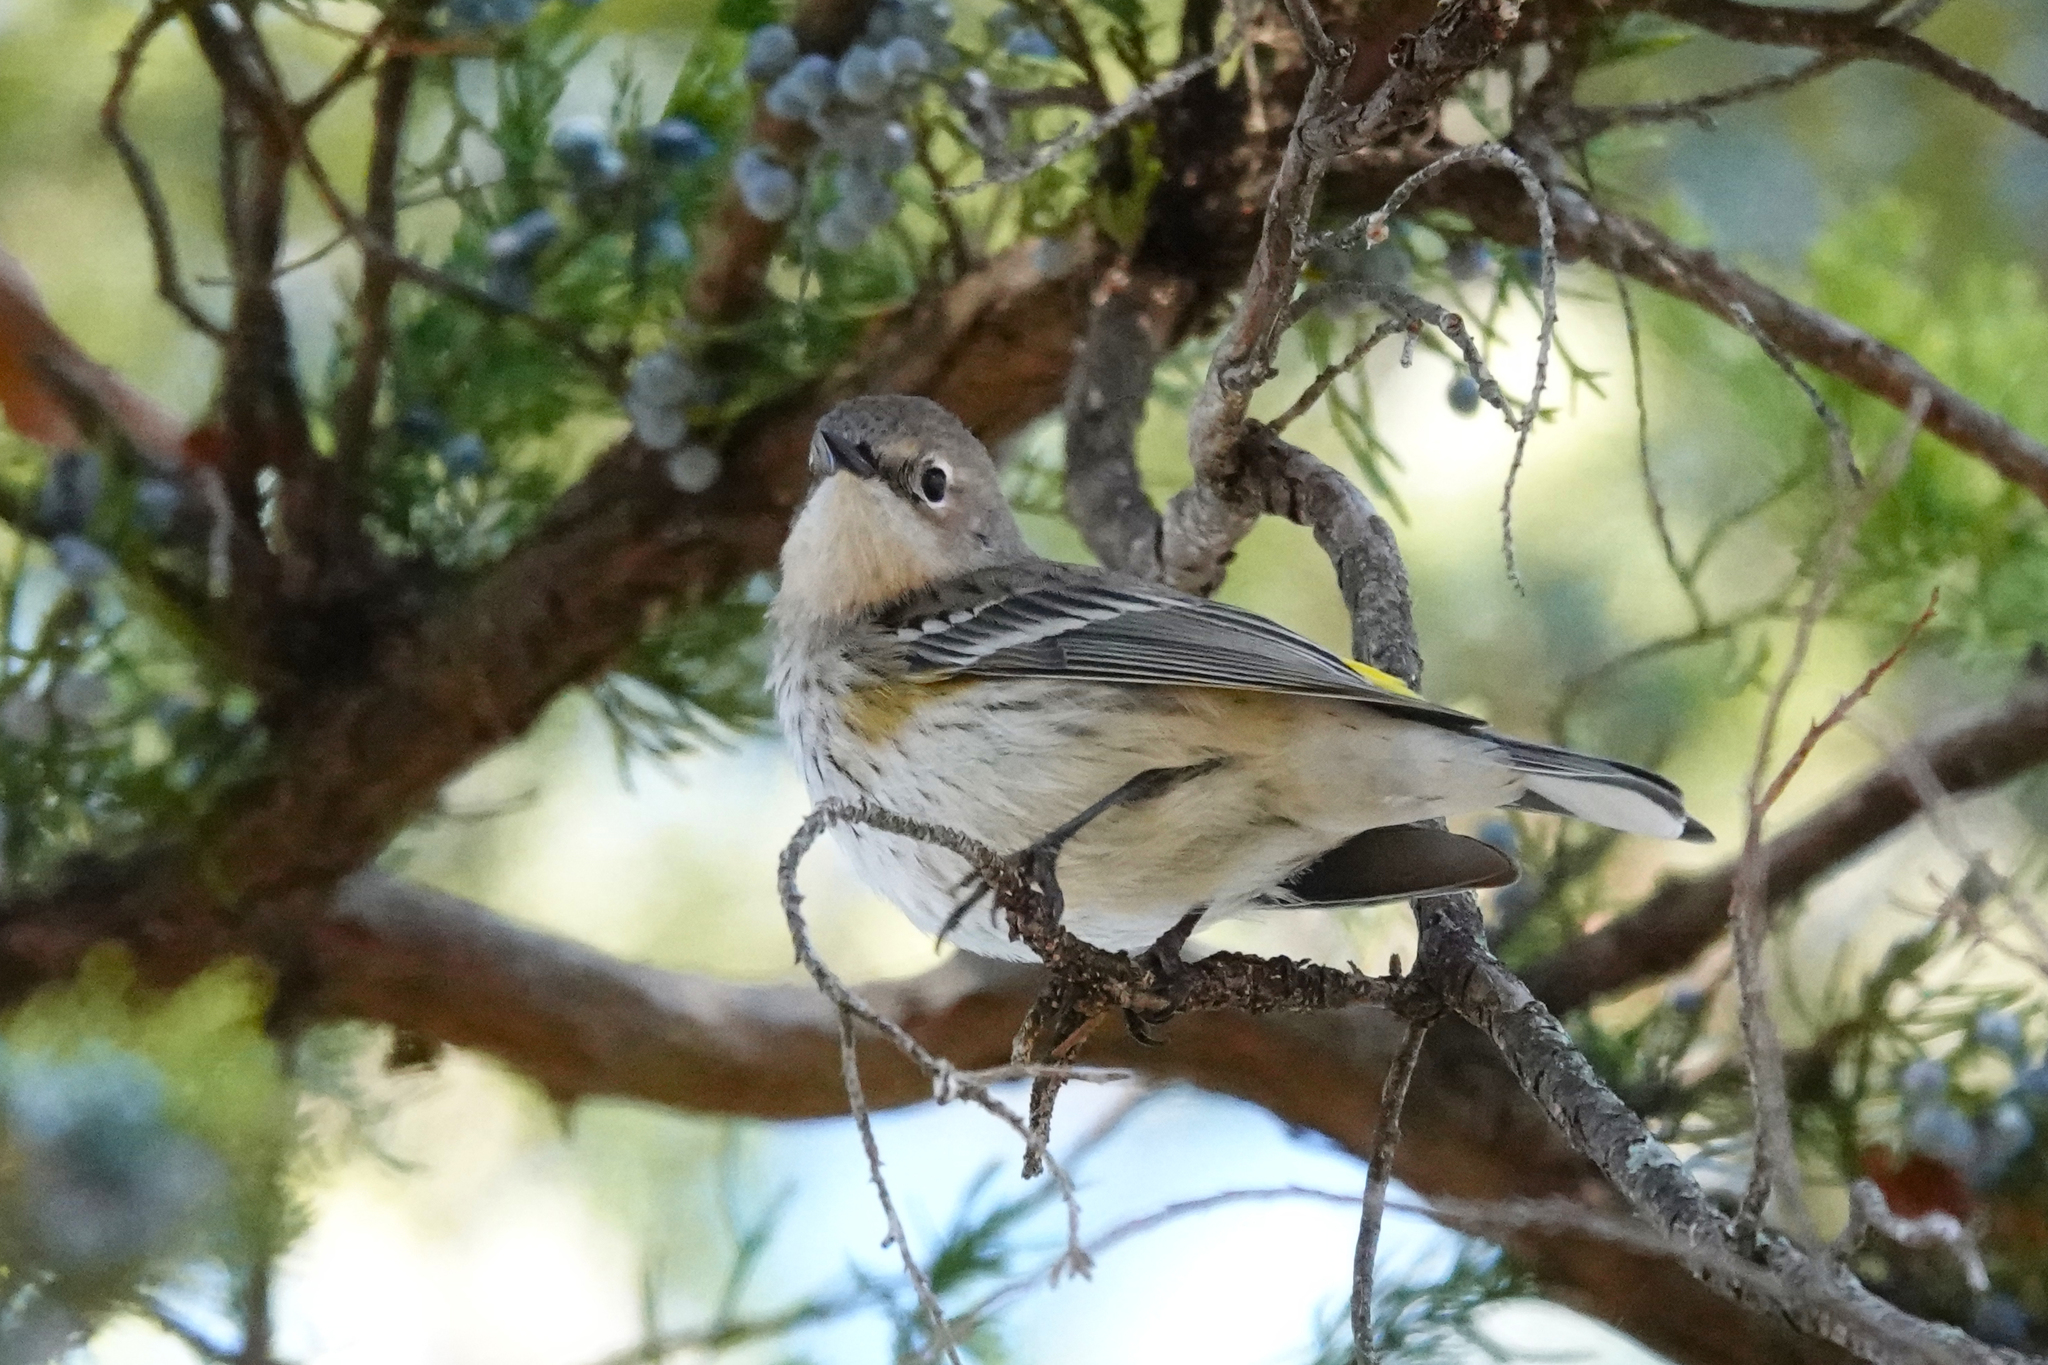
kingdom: Animalia
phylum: Chordata
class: Aves
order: Passeriformes
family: Parulidae
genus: Setophaga
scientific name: Setophaga coronata
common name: Myrtle warbler
